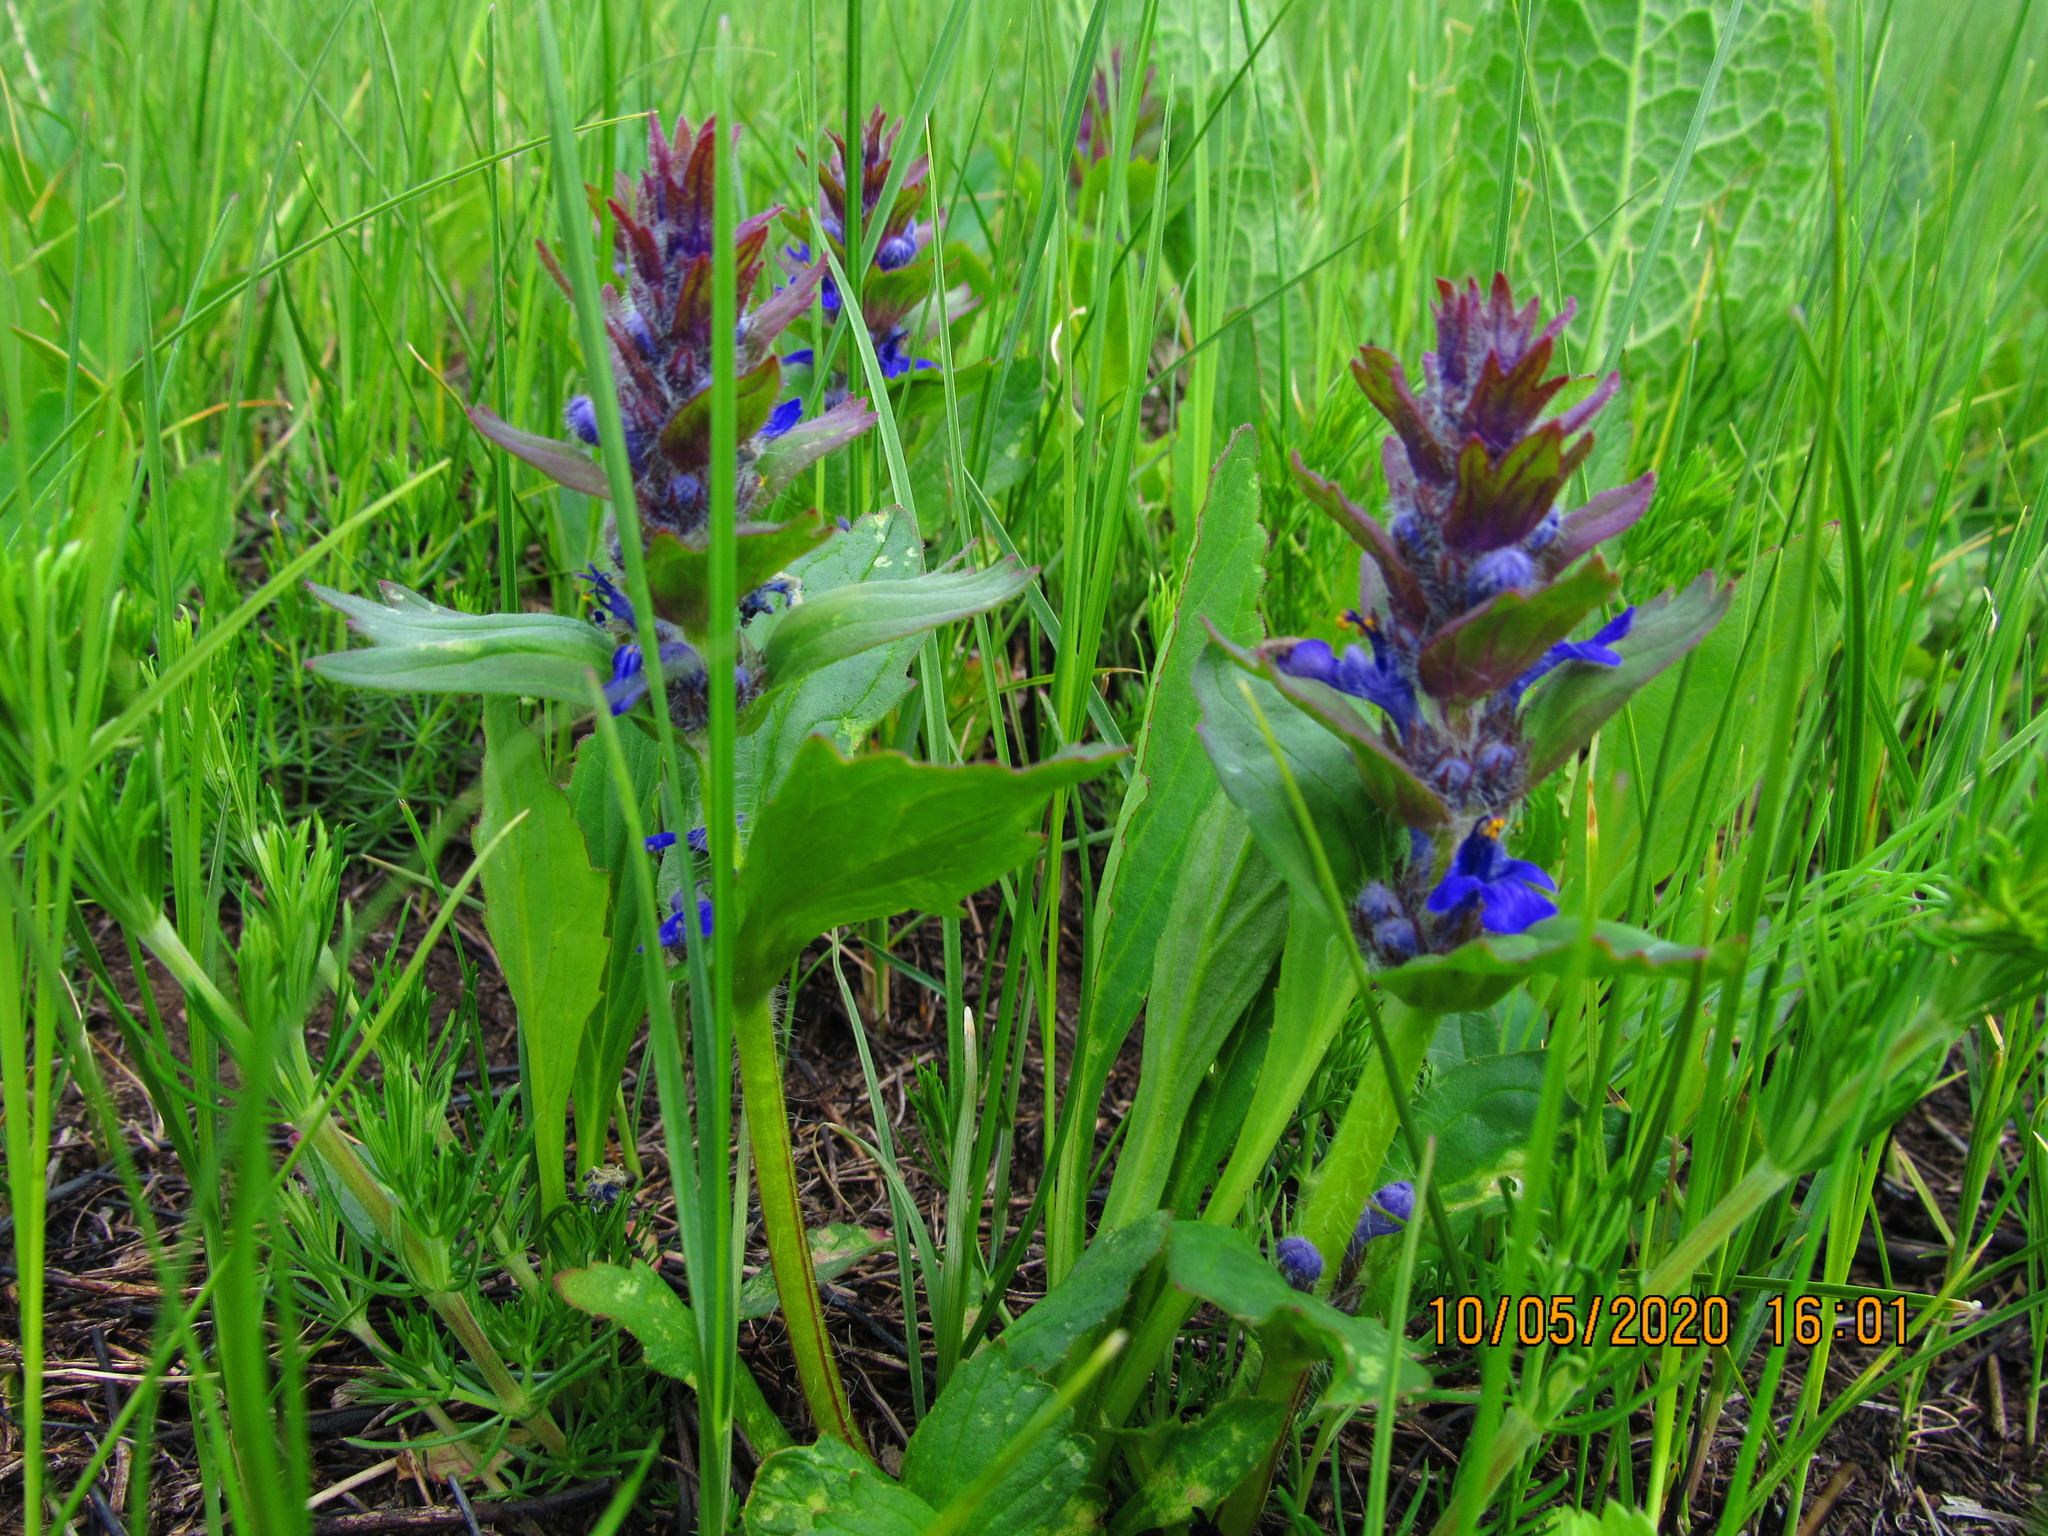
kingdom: Plantae
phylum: Tracheophyta
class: Magnoliopsida
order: Lamiales
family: Lamiaceae
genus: Ajuga
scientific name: Ajuga genevensis
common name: Blue bugle
